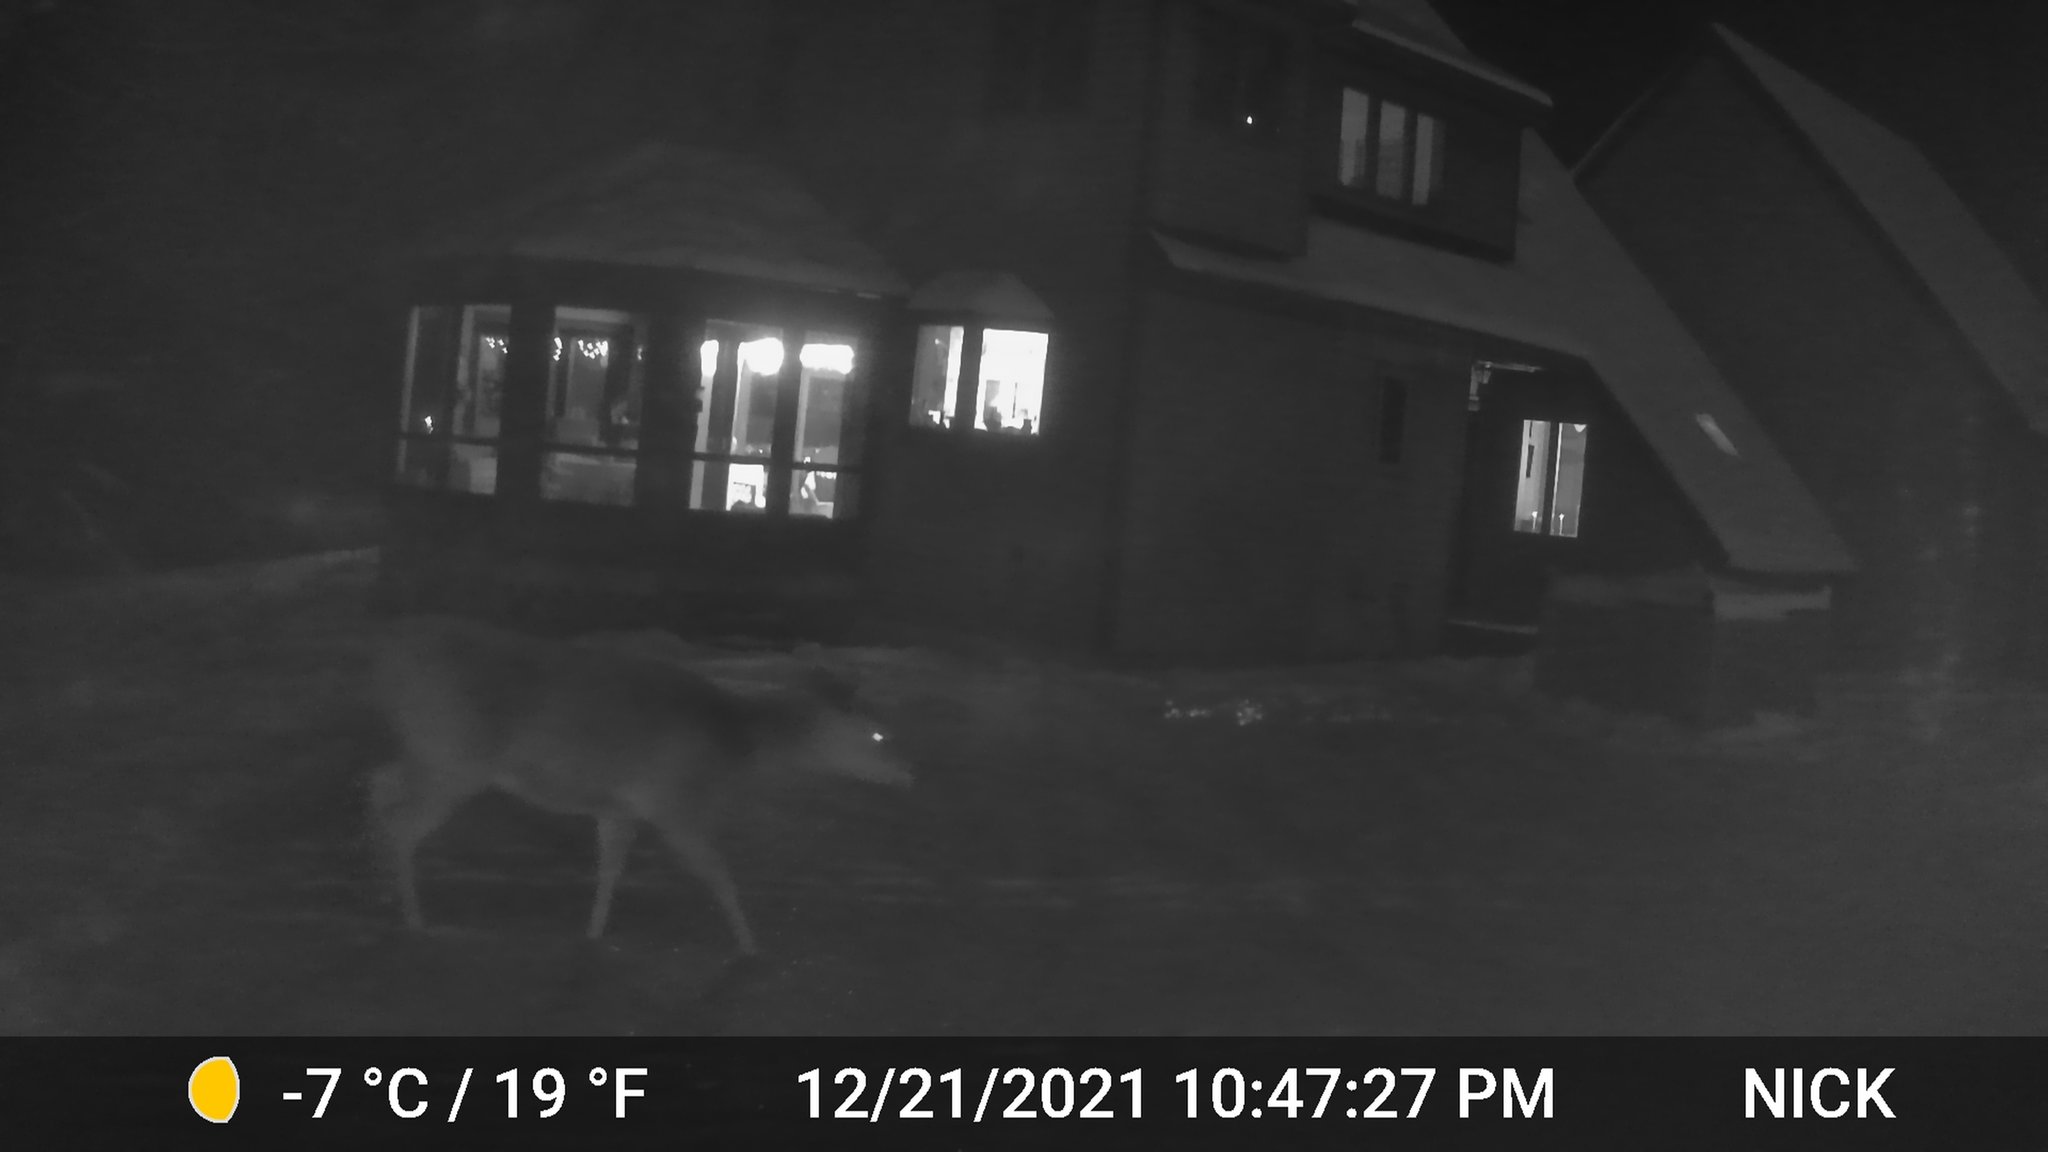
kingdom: Animalia
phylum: Chordata
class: Mammalia
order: Artiodactyla
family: Cervidae
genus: Odocoileus
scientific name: Odocoileus virginianus
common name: White-tailed deer
